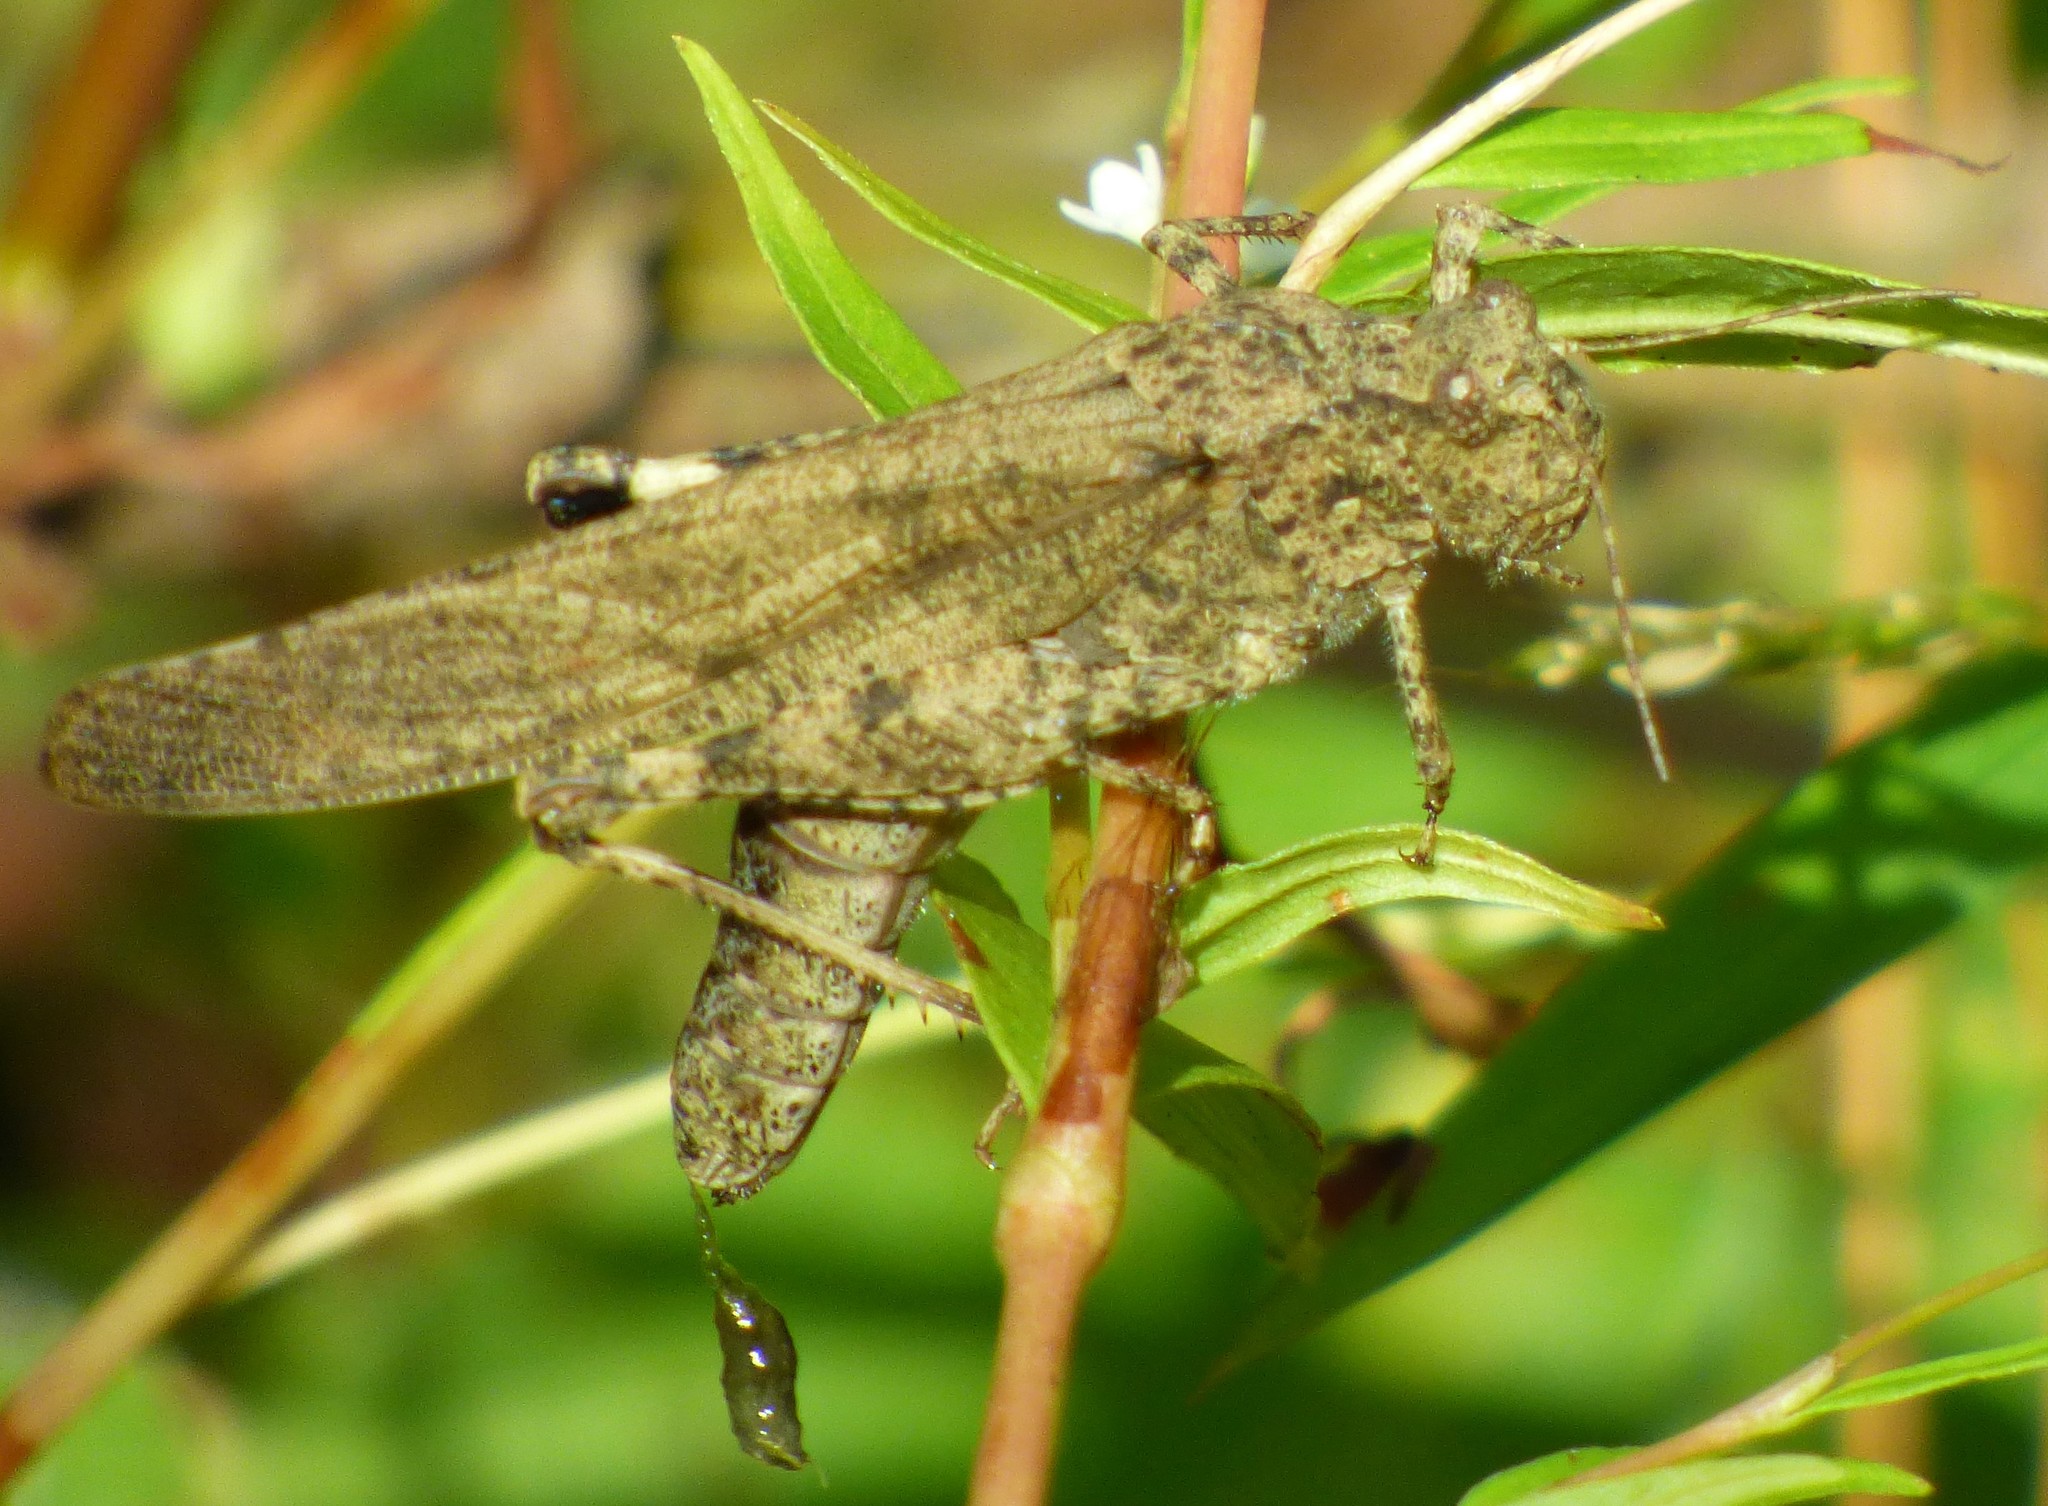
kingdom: Animalia
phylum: Arthropoda
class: Insecta
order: Orthoptera
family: Acrididae
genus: Dissosteira
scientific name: Dissosteira carolina
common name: Carolina grasshopper
